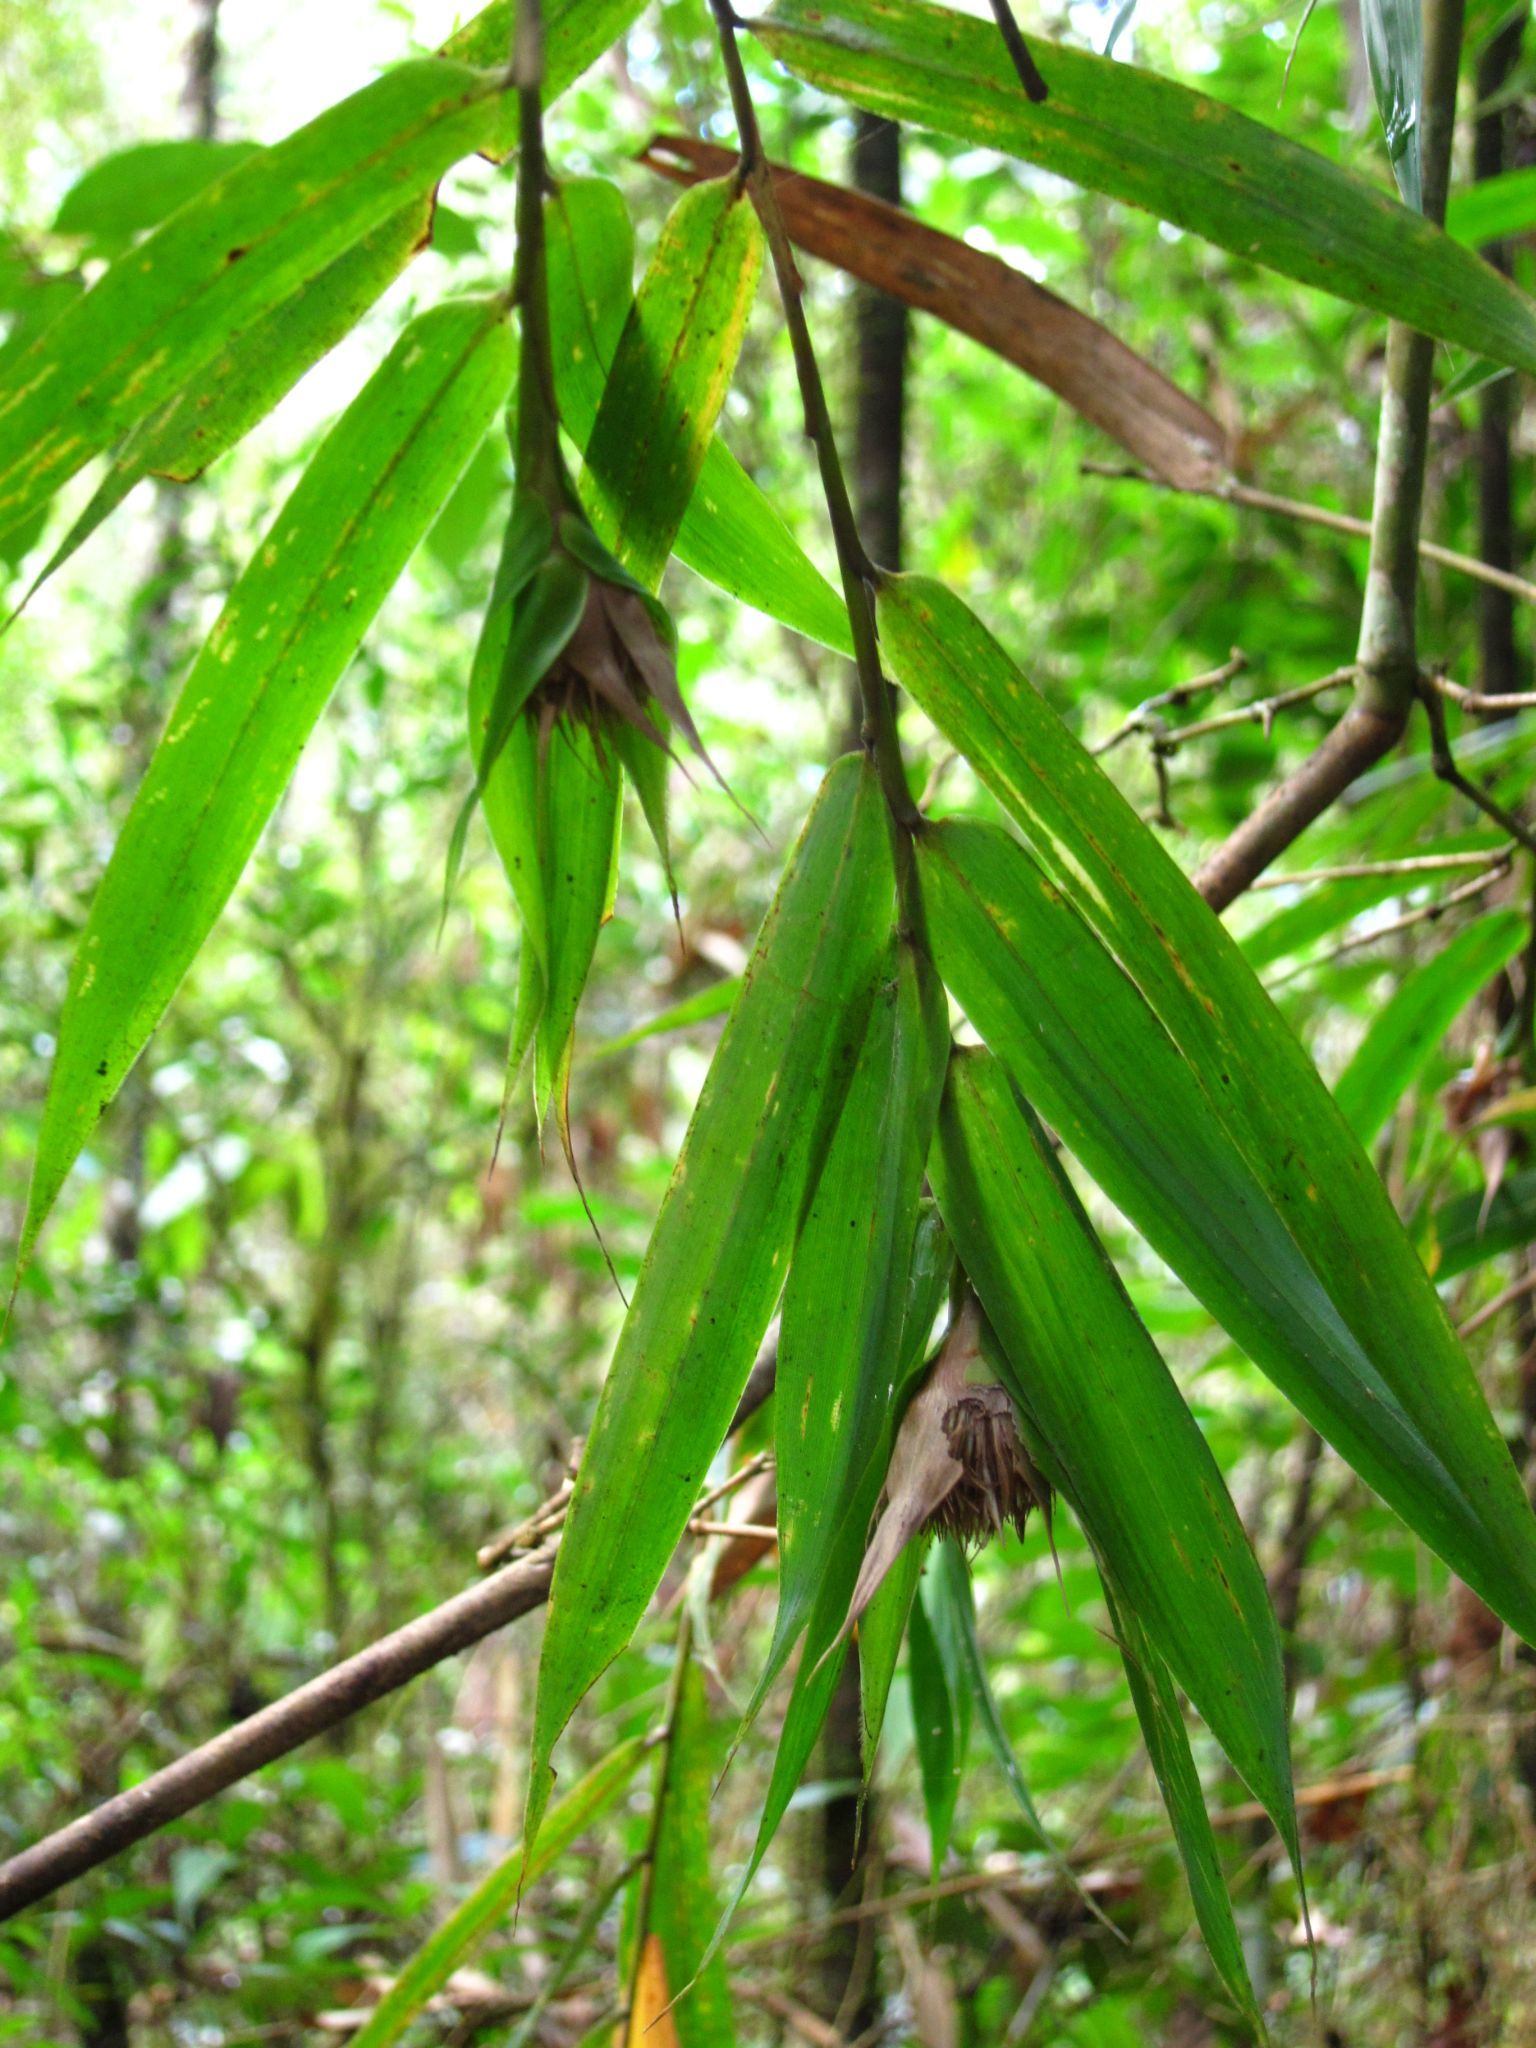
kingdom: Plantae
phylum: Tracheophyta
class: Liliopsida
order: Poales
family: Poaceae
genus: Sokinochloa
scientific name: Sokinochloa chapelieri
